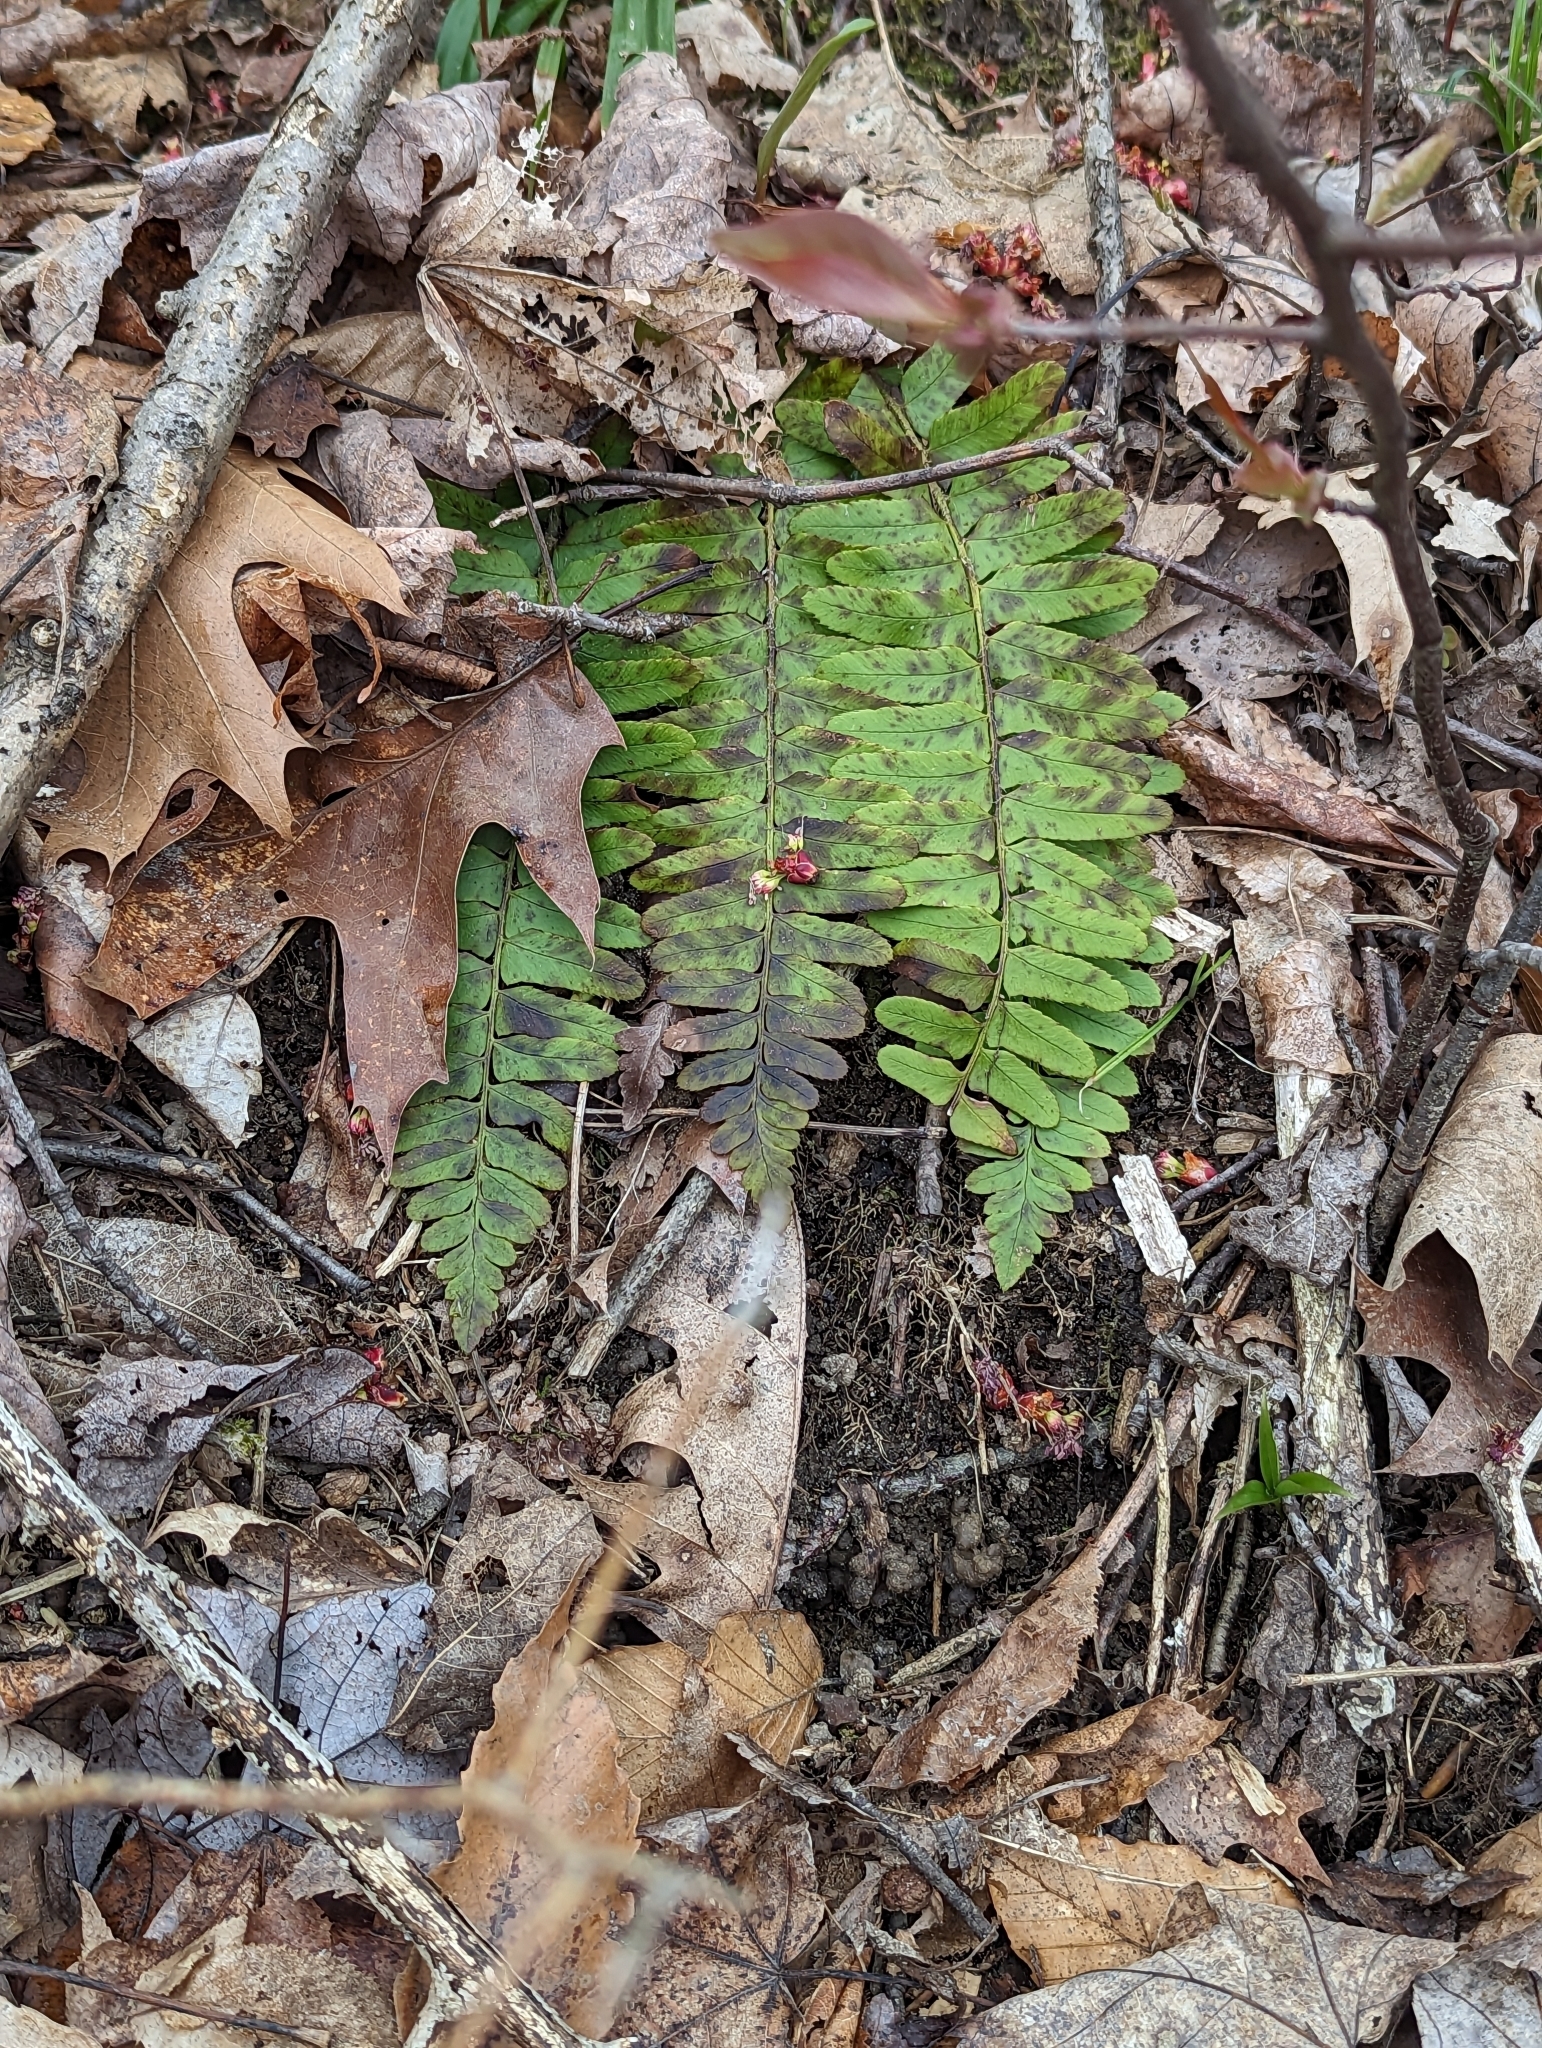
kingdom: Plantae
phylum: Tracheophyta
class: Polypodiopsida
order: Polypodiales
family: Dryopteridaceae
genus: Polystichum
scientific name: Polystichum acrostichoides
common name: Christmas fern
